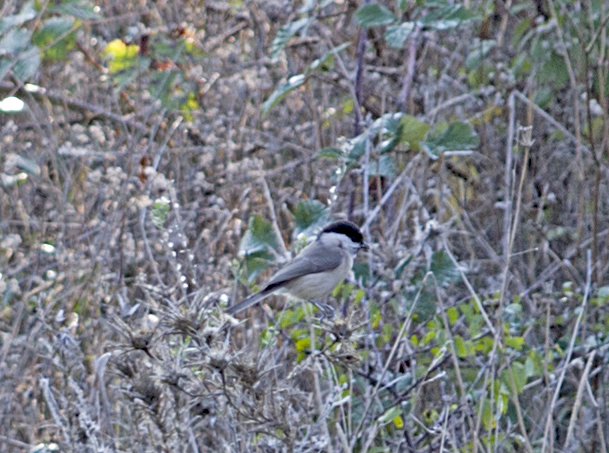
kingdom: Animalia
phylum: Chordata
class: Aves
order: Passeriformes
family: Paridae
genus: Poecile
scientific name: Poecile palustris
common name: Marsh tit
